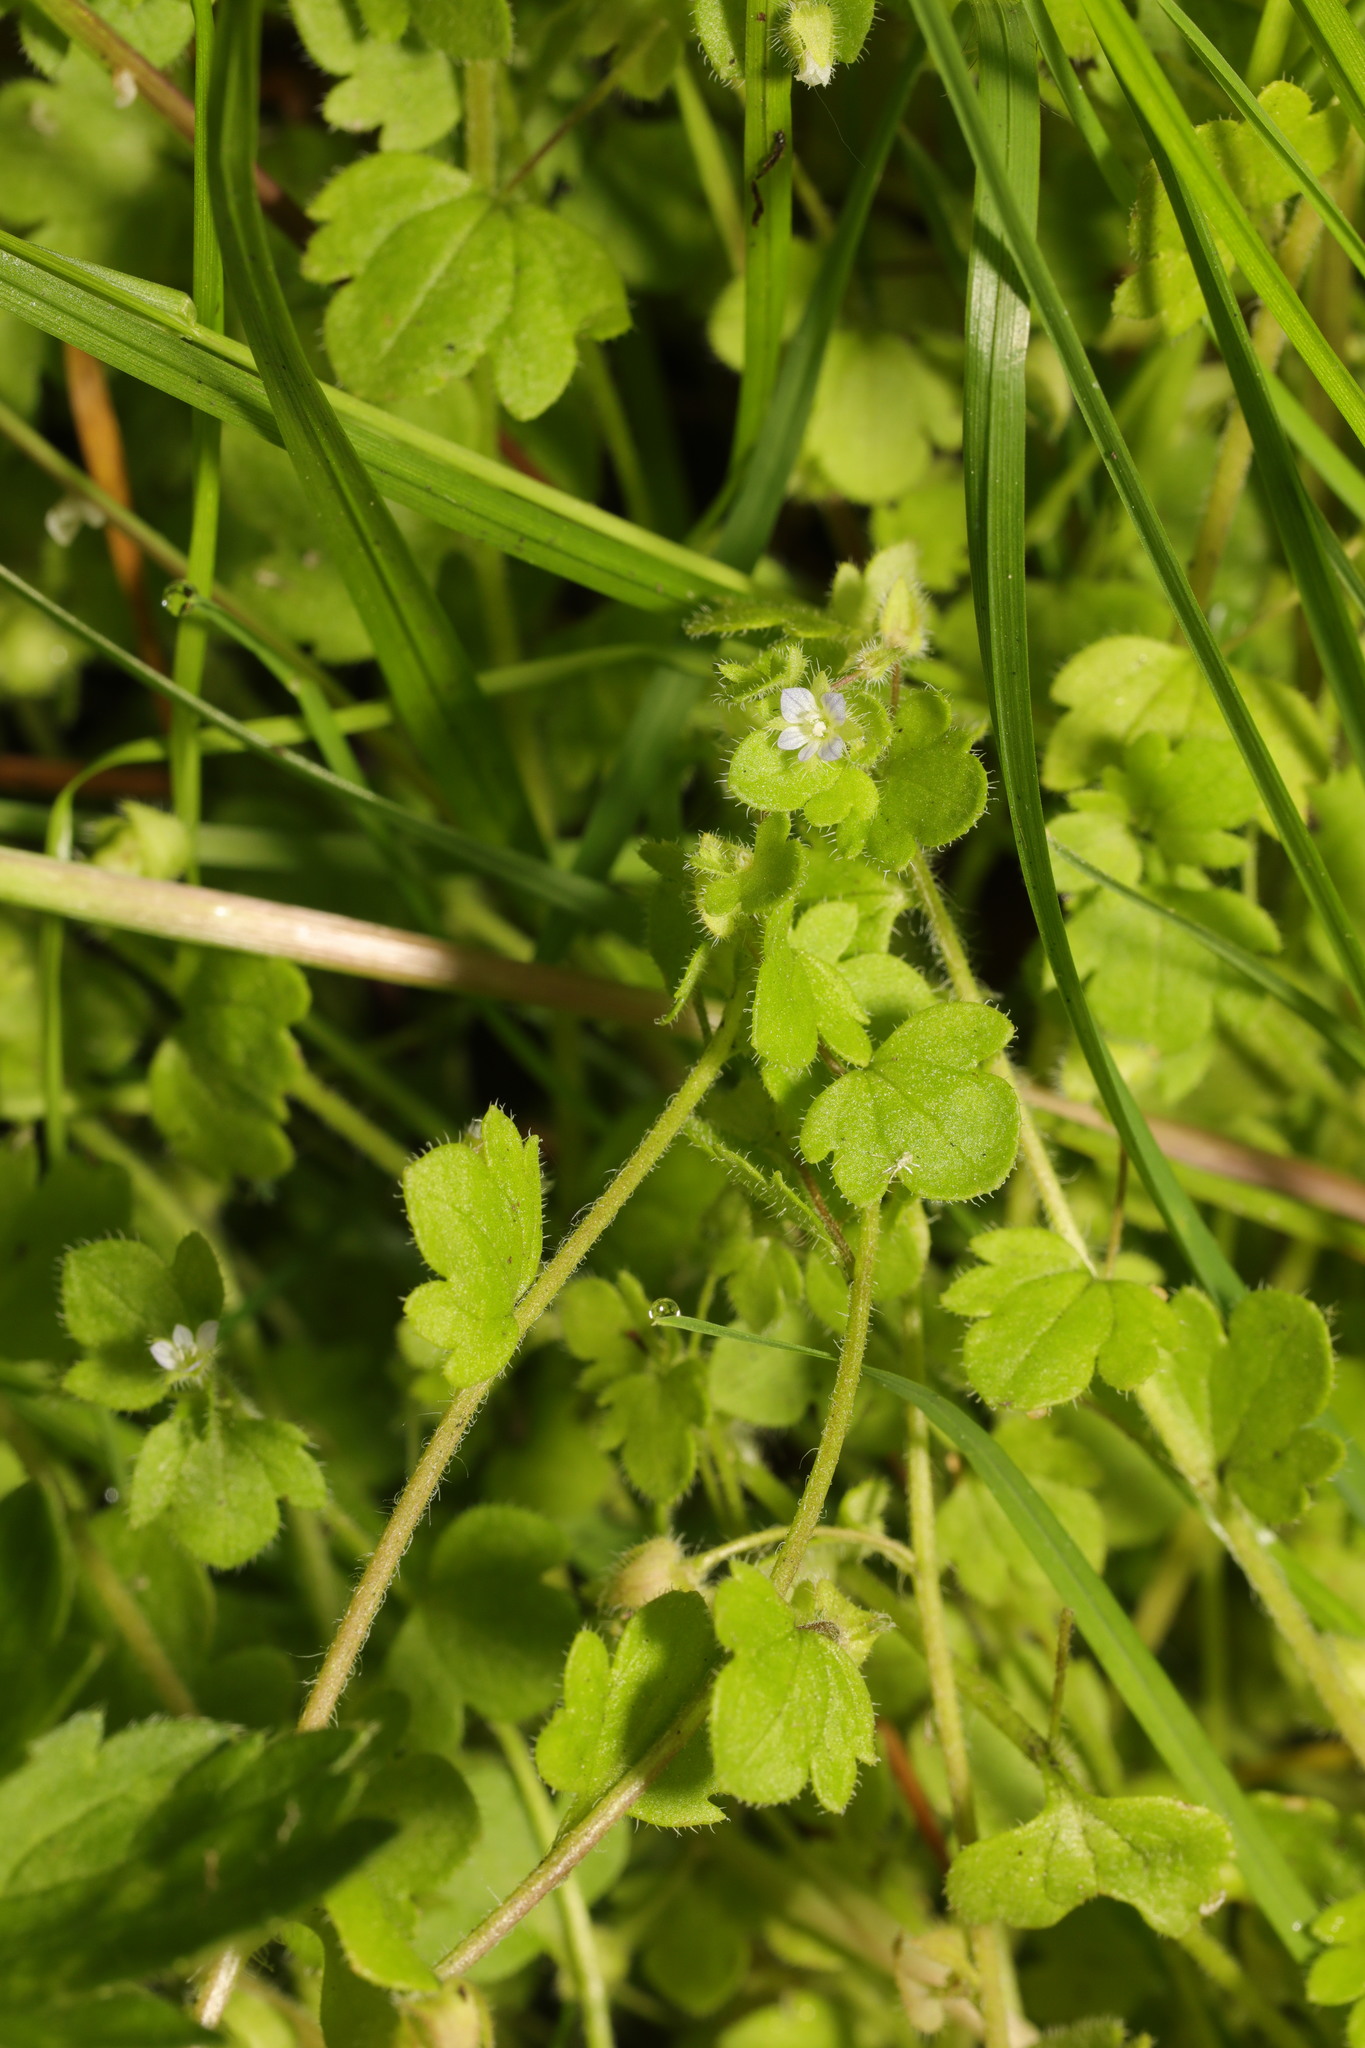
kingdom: Plantae
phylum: Tracheophyta
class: Magnoliopsida
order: Lamiales
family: Plantaginaceae
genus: Veronica
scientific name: Veronica sublobata
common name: False ivy-leaved speedwell
